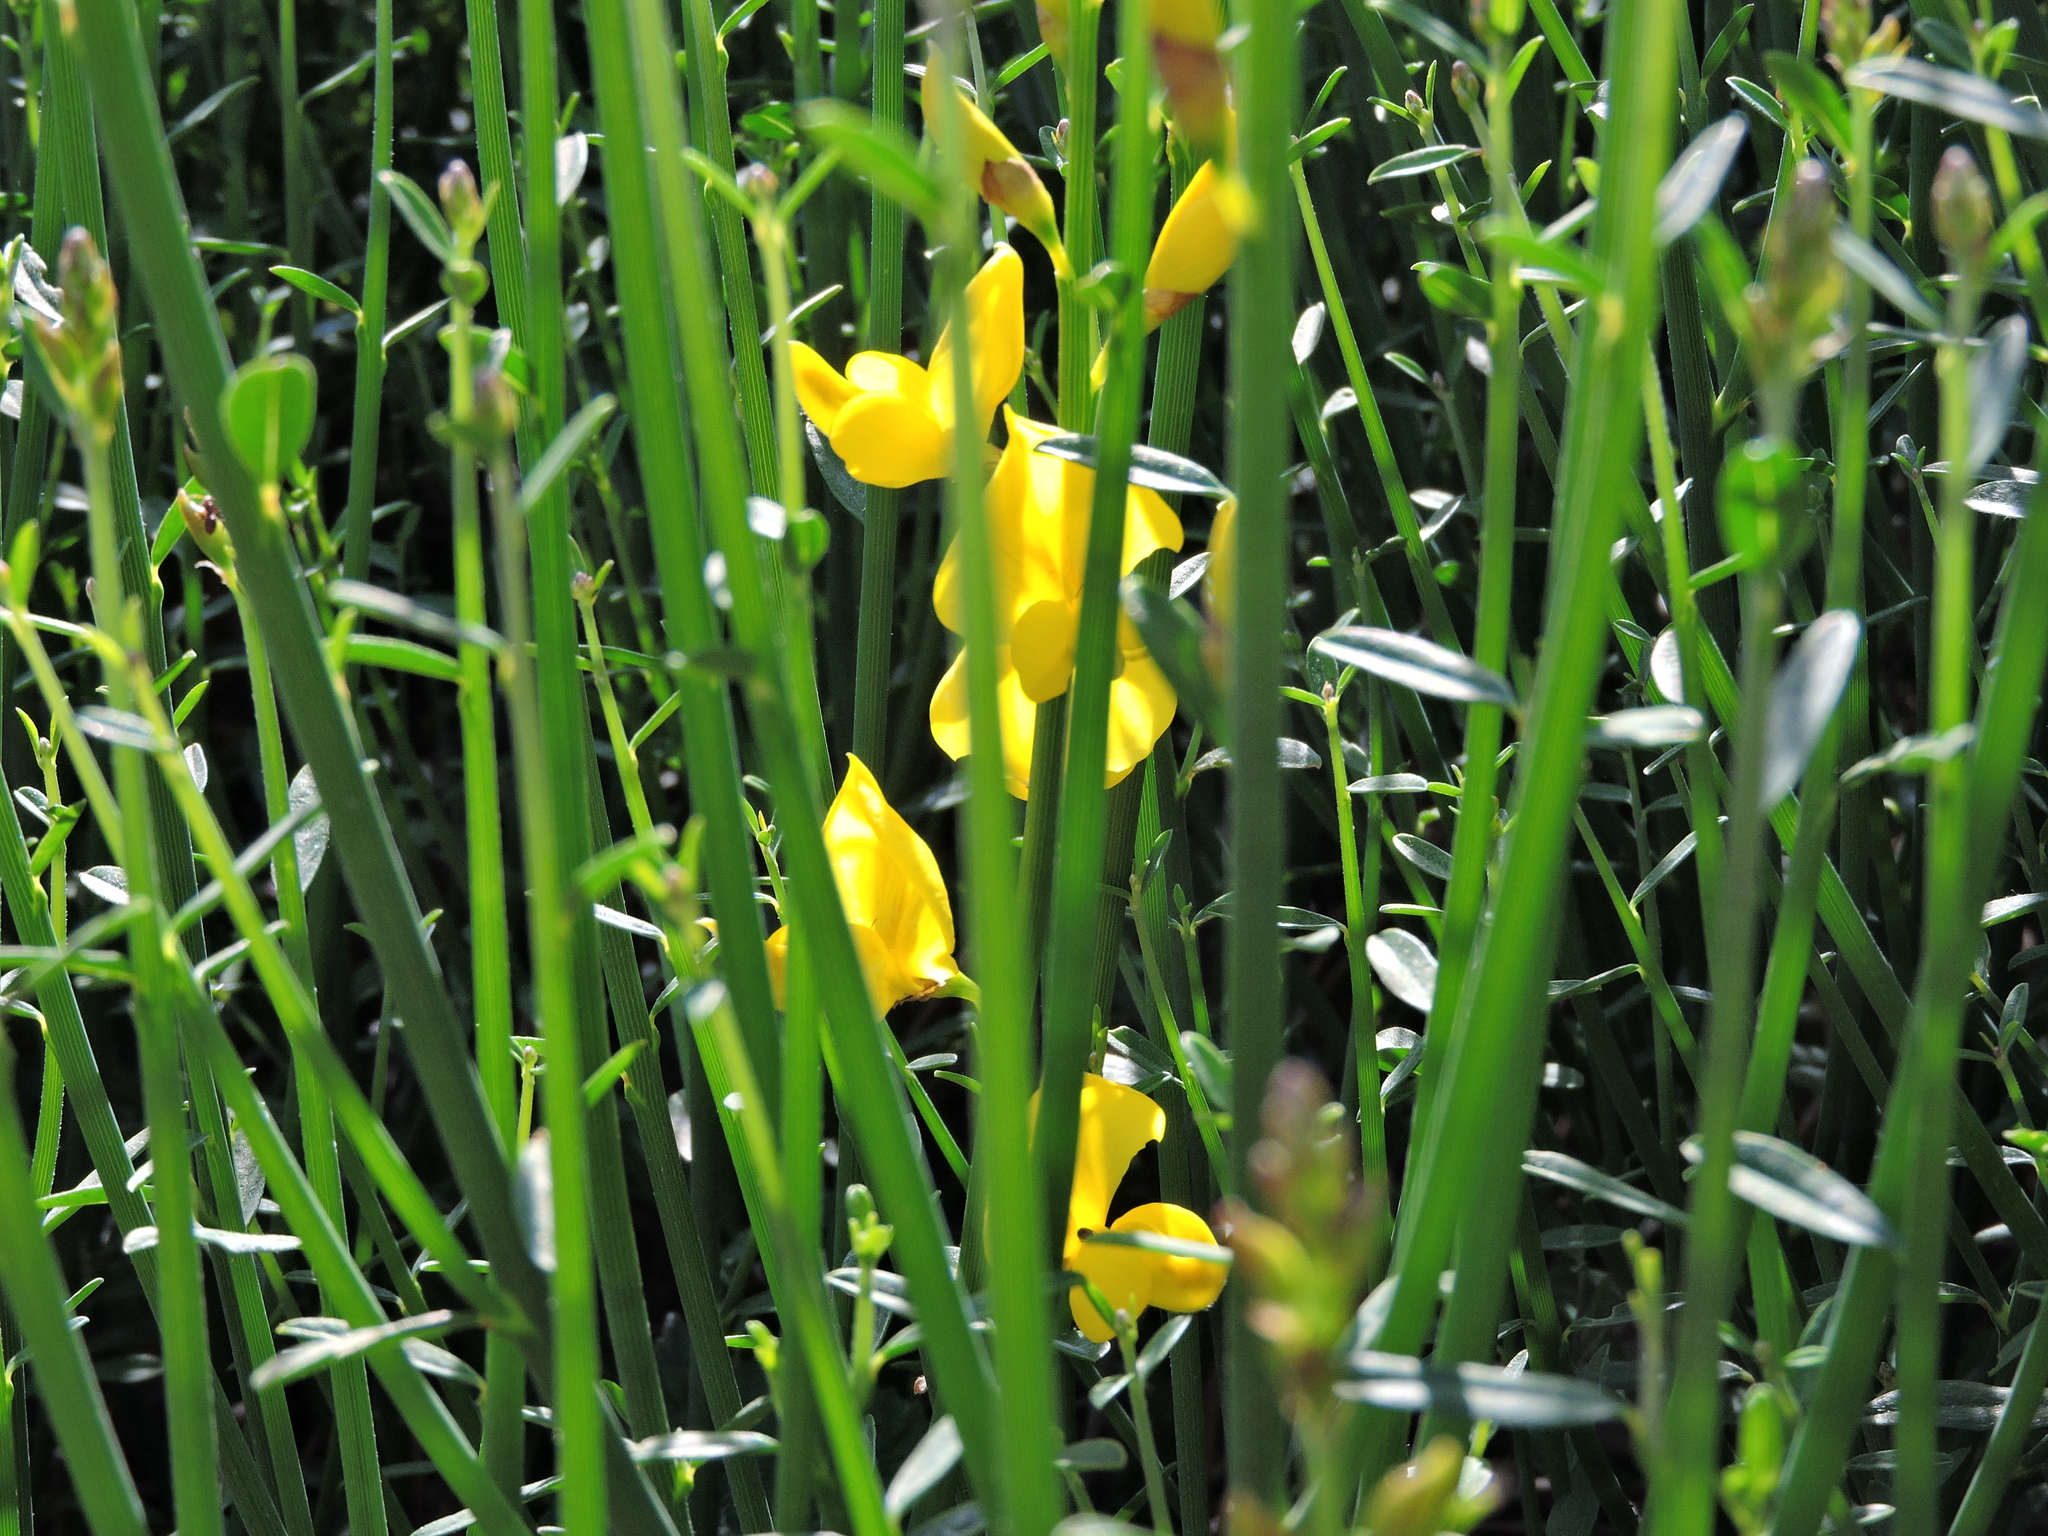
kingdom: Plantae
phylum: Tracheophyta
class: Magnoliopsida
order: Fabales
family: Fabaceae
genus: Spartium
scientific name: Spartium junceum
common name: Spanish broom
